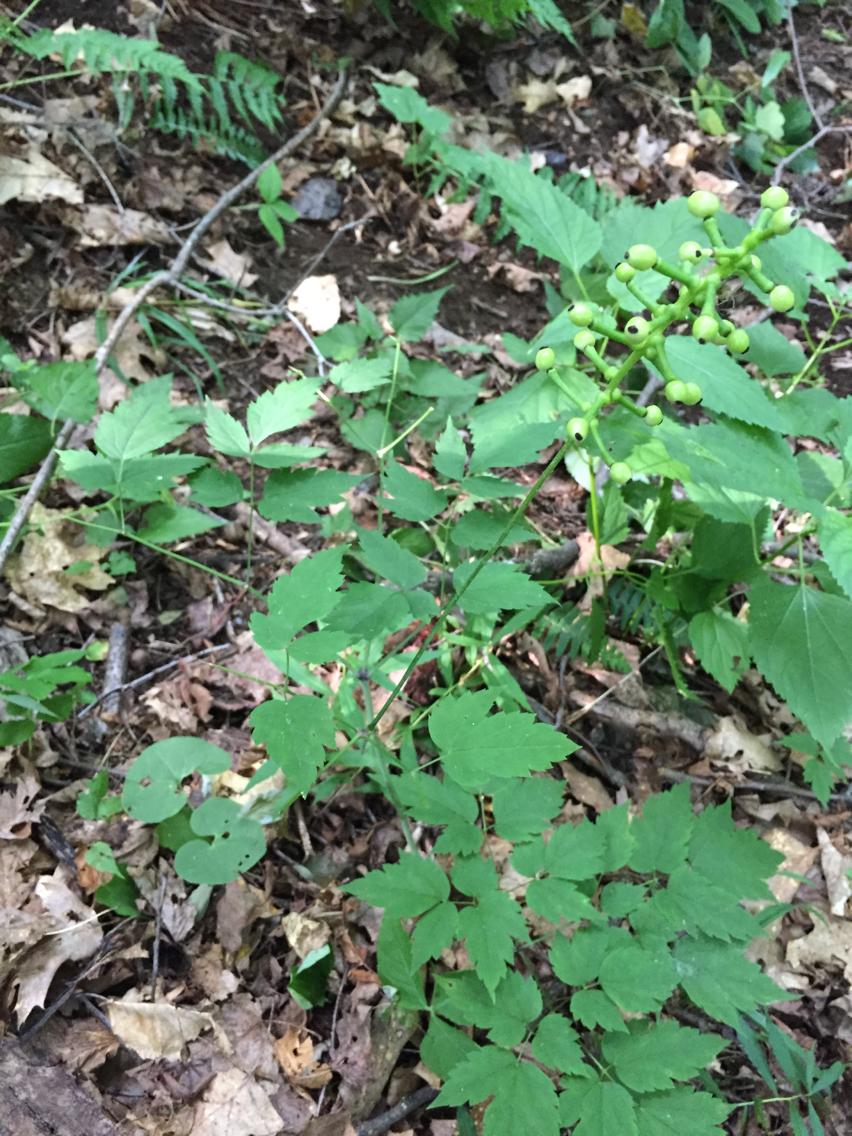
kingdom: Plantae
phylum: Tracheophyta
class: Magnoliopsida
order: Ranunculales
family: Ranunculaceae
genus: Actaea
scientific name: Actaea pachypoda
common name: Doll's-eyes
